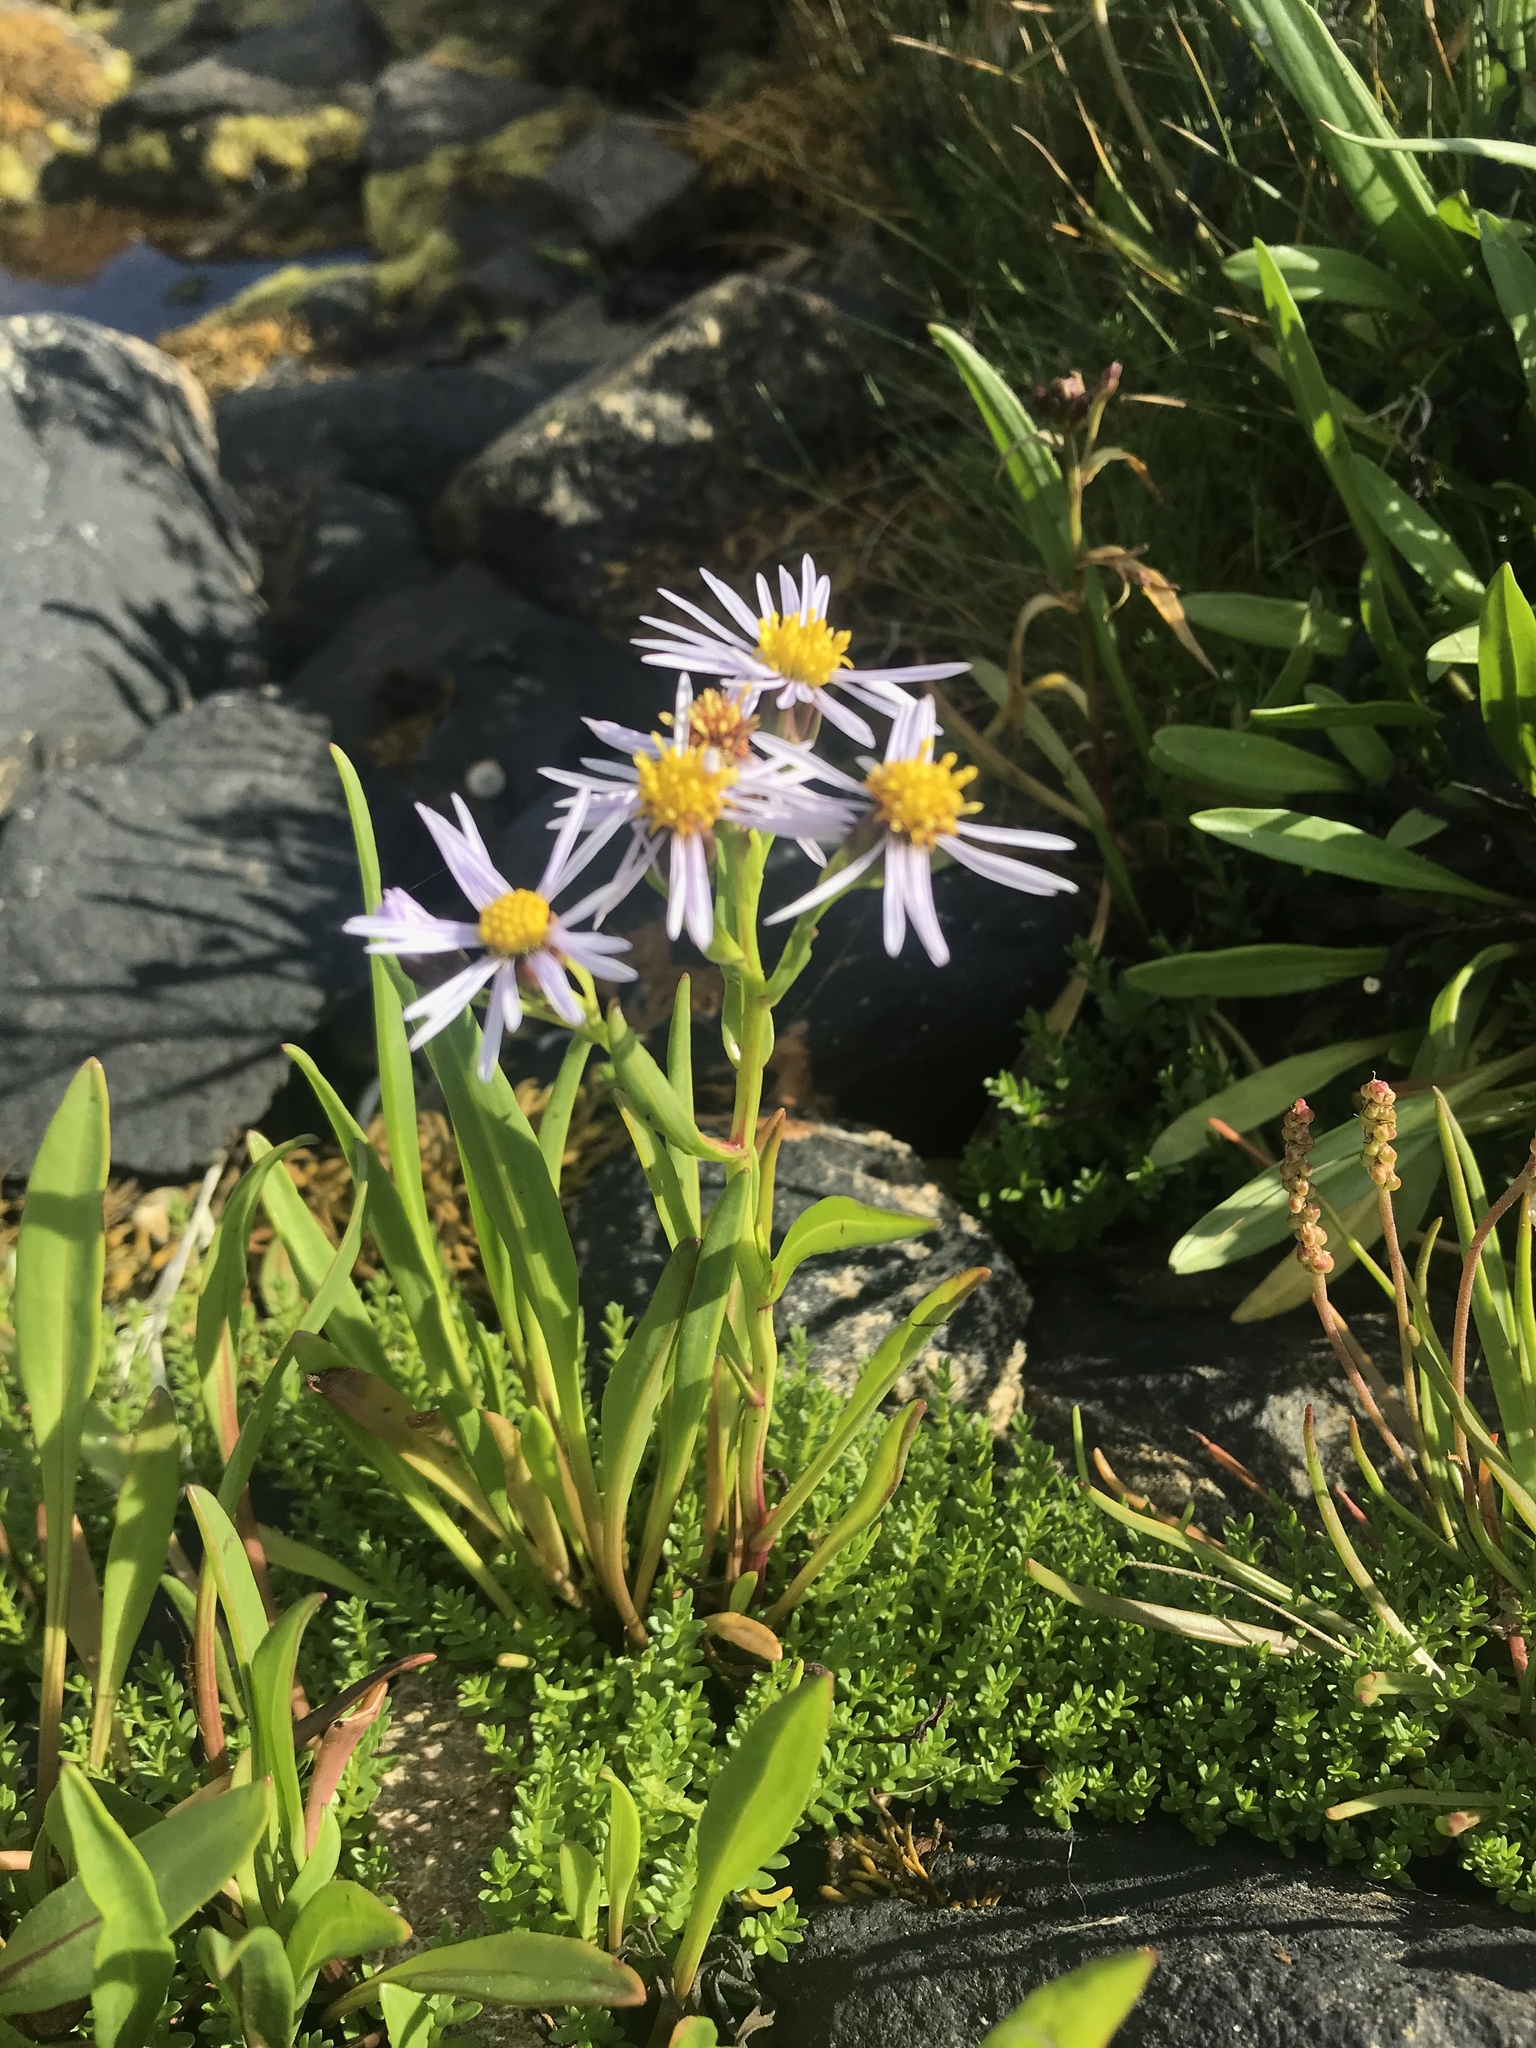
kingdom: Plantae
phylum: Tracheophyta
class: Magnoliopsida
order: Asterales
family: Asteraceae
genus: Tripolium
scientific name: Tripolium pannonicum
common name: Sea aster
